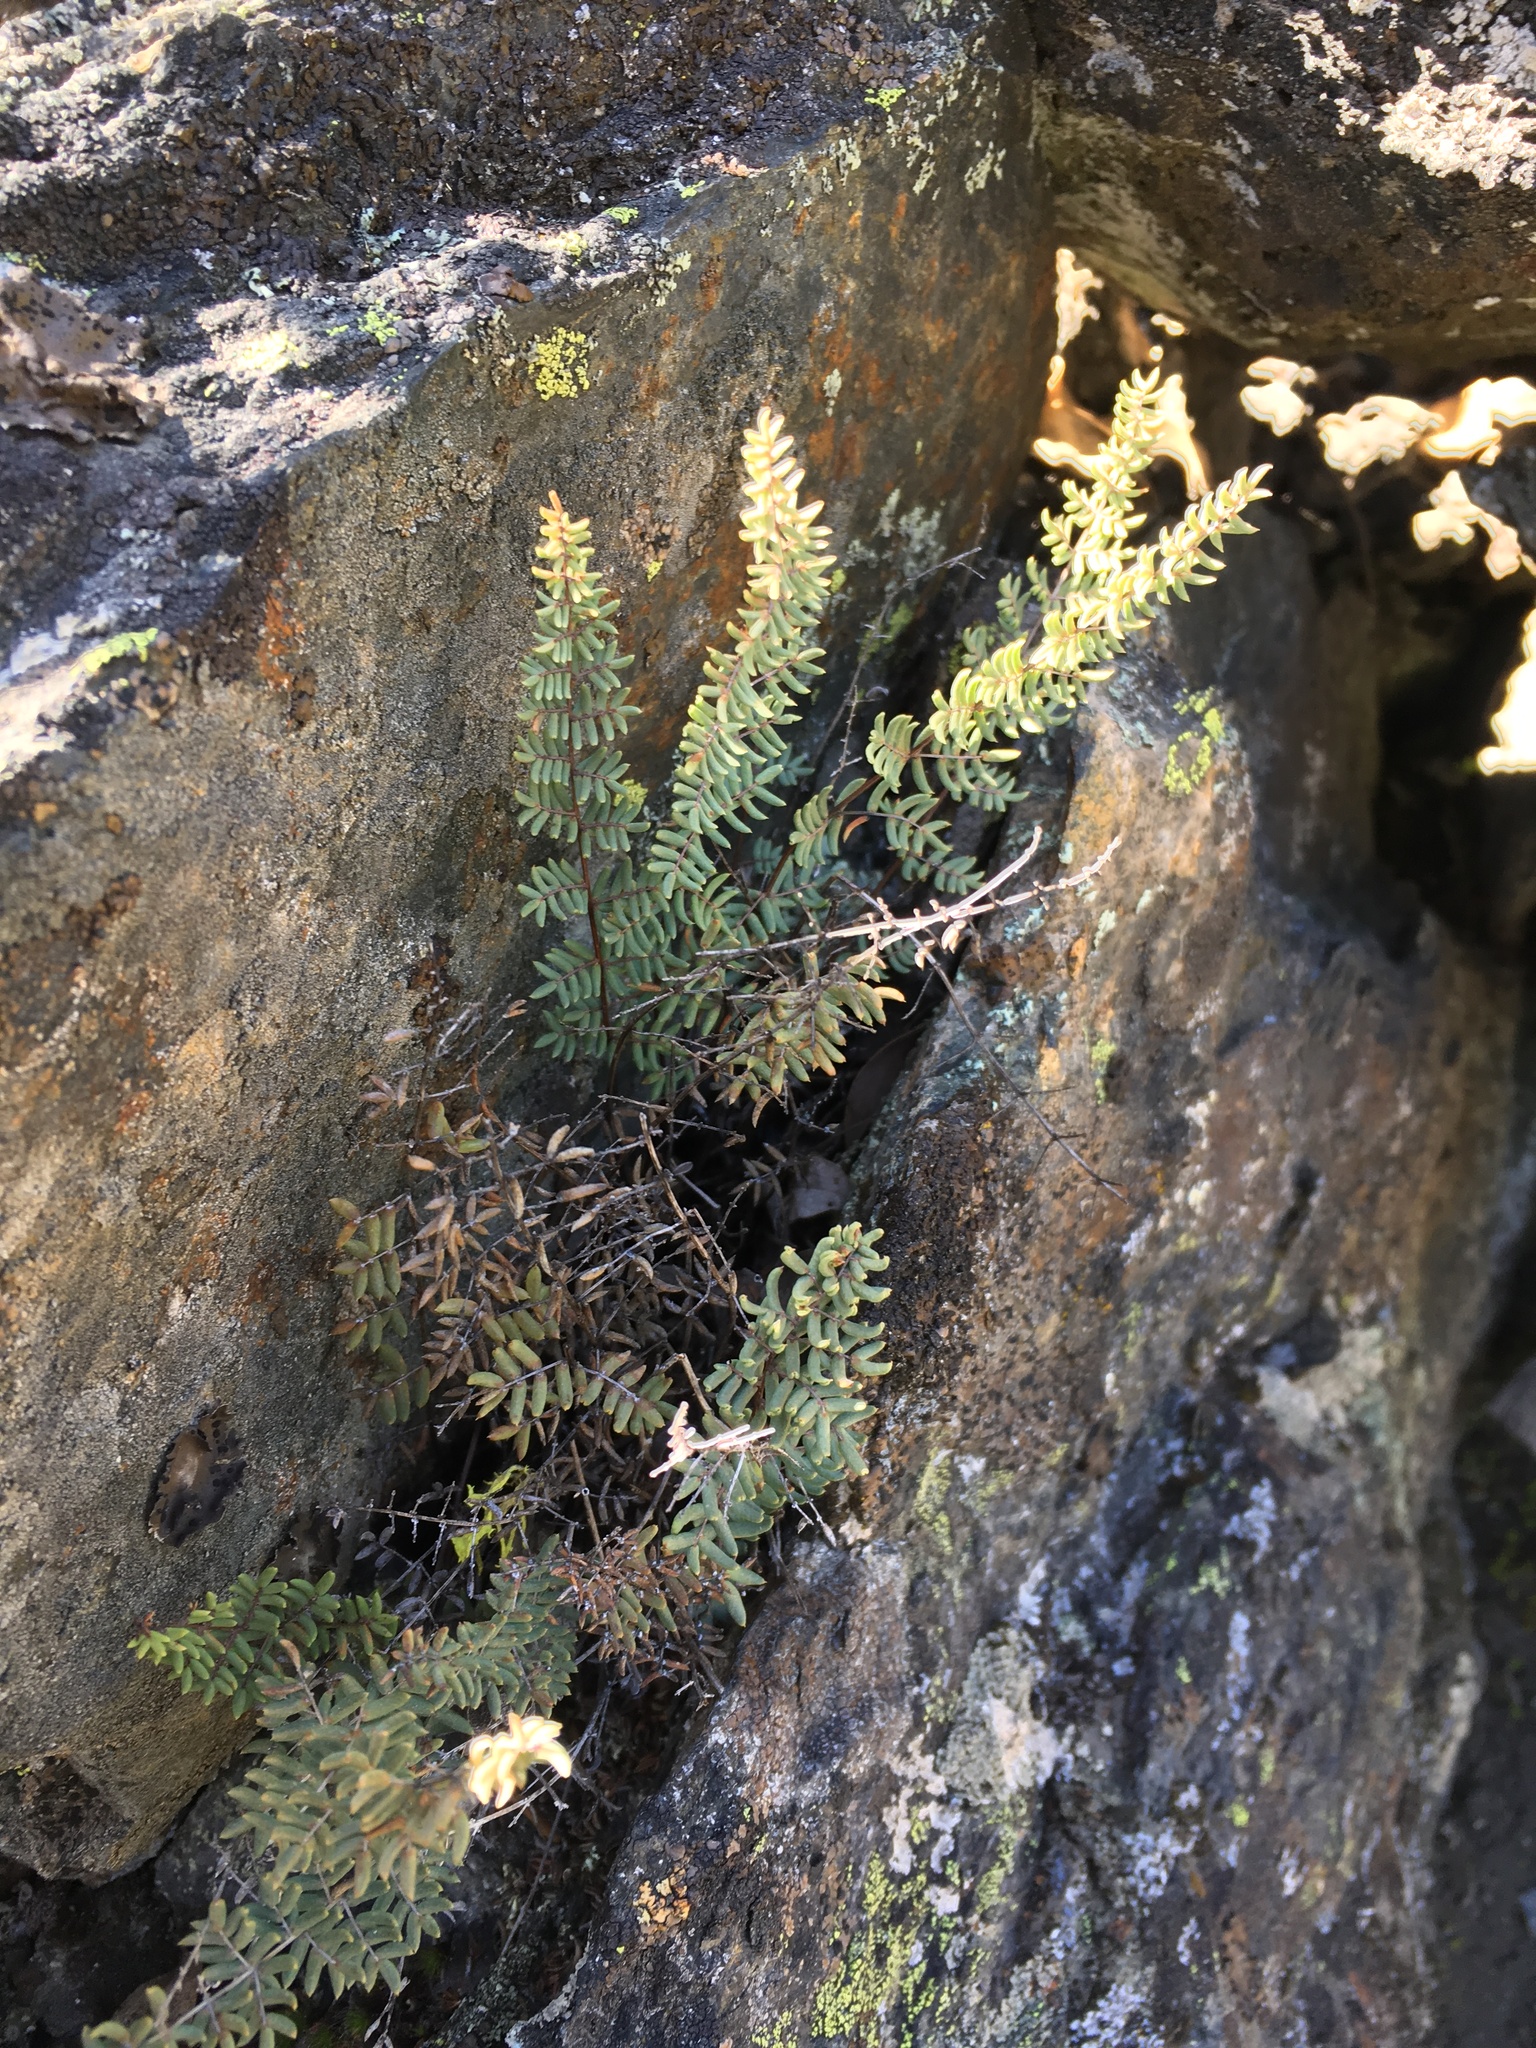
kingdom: Plantae
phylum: Tracheophyta
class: Polypodiopsida
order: Polypodiales
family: Pteridaceae
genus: Pellaea
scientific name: Pellaea mucronata
